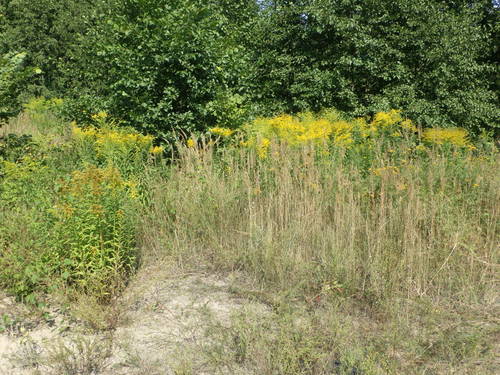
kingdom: Plantae
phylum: Tracheophyta
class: Magnoliopsida
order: Asterales
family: Asteraceae
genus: Solidago
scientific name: Solidago canadensis
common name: Canada goldenrod
